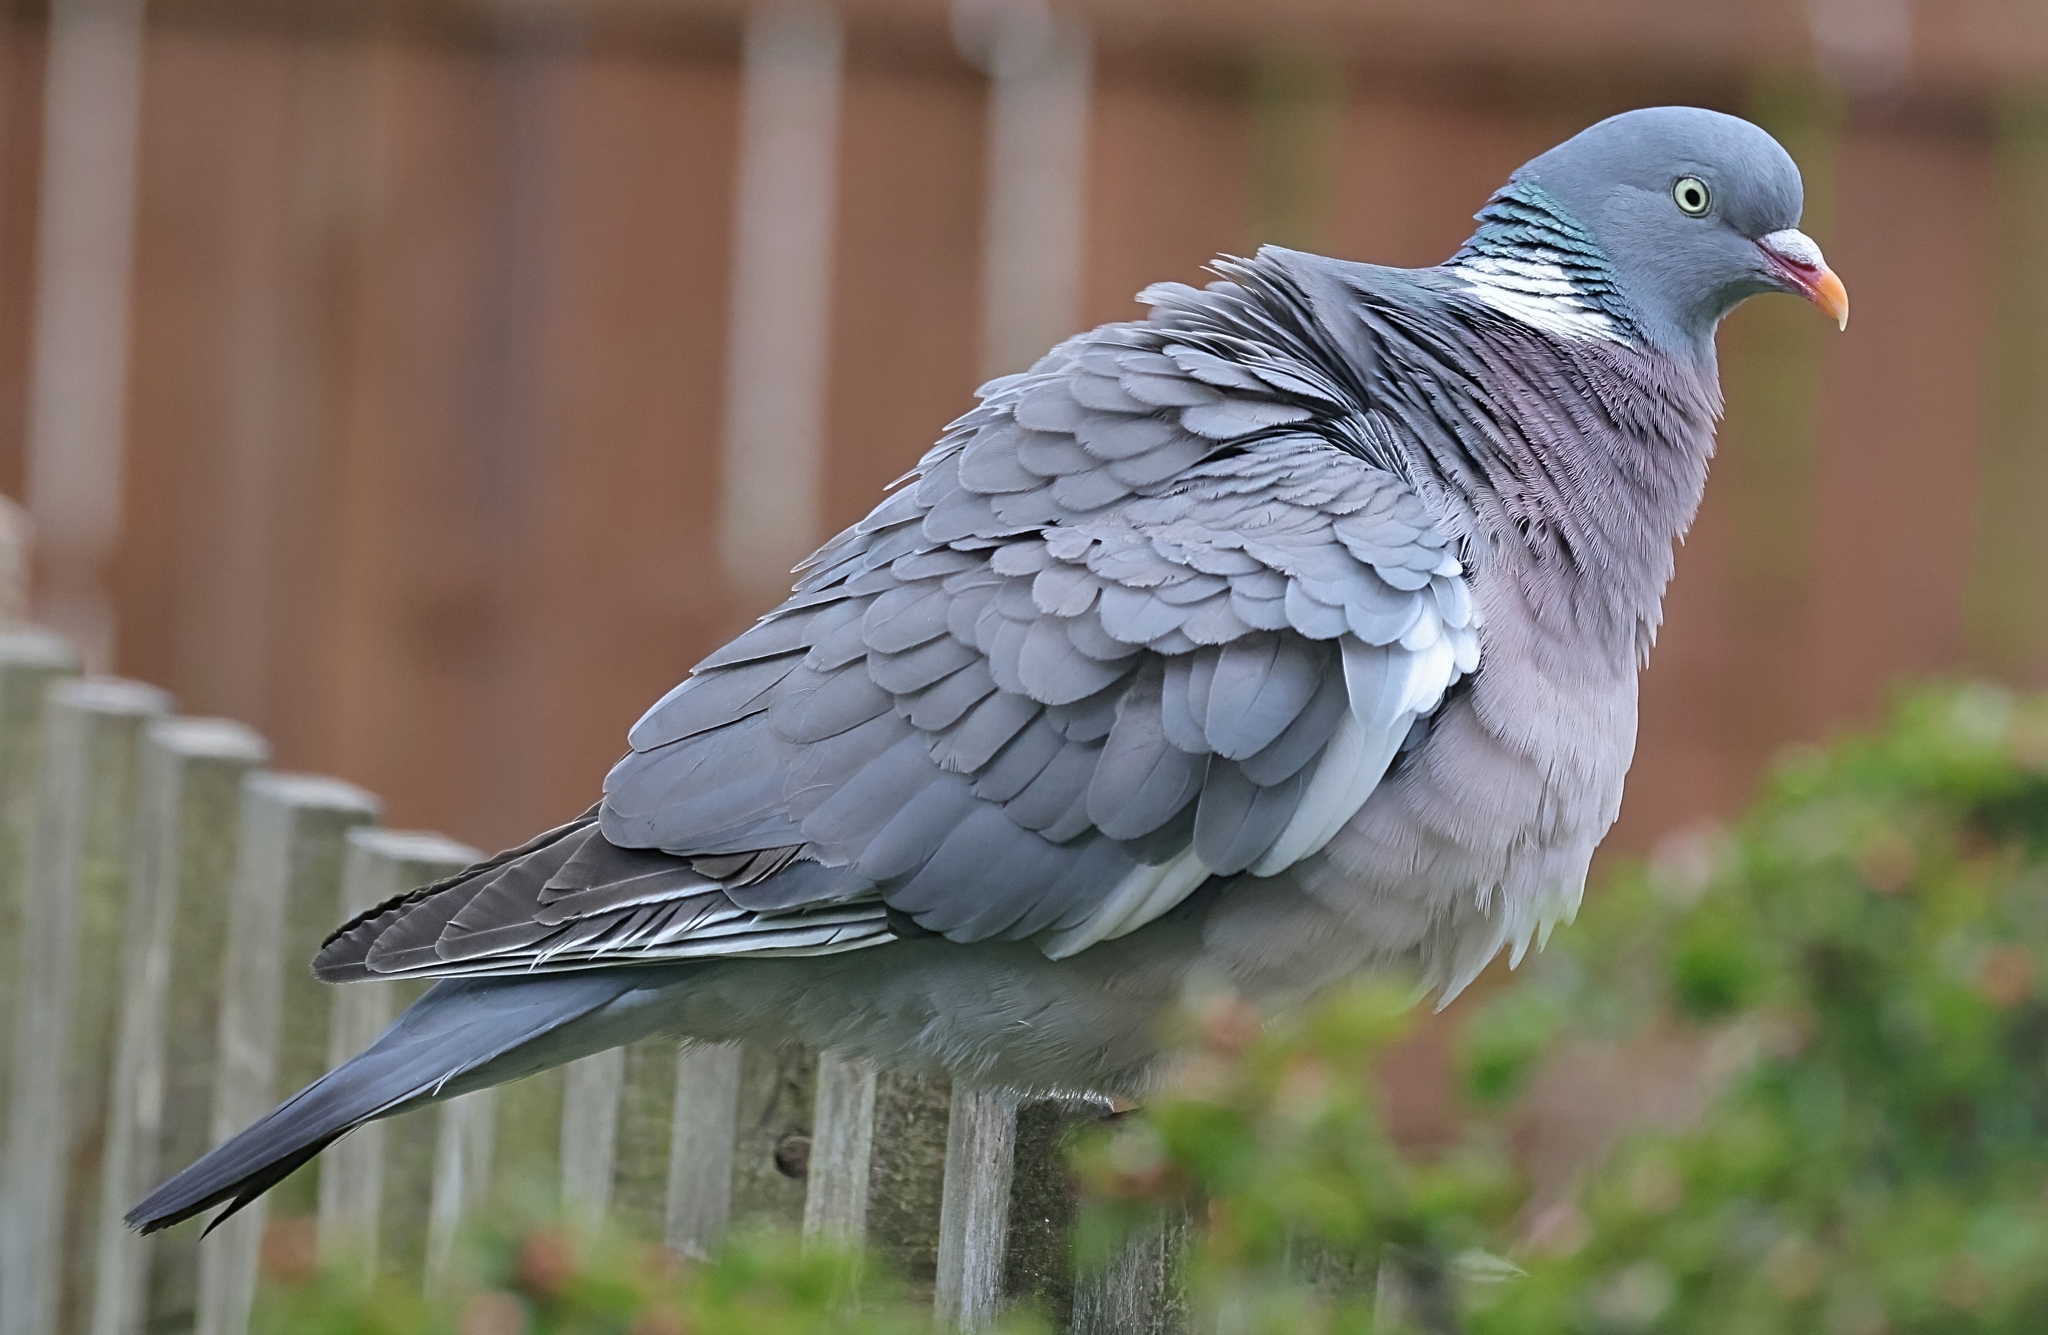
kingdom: Animalia
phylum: Chordata
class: Aves
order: Columbiformes
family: Columbidae
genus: Columba
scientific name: Columba palumbus
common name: Common wood pigeon
